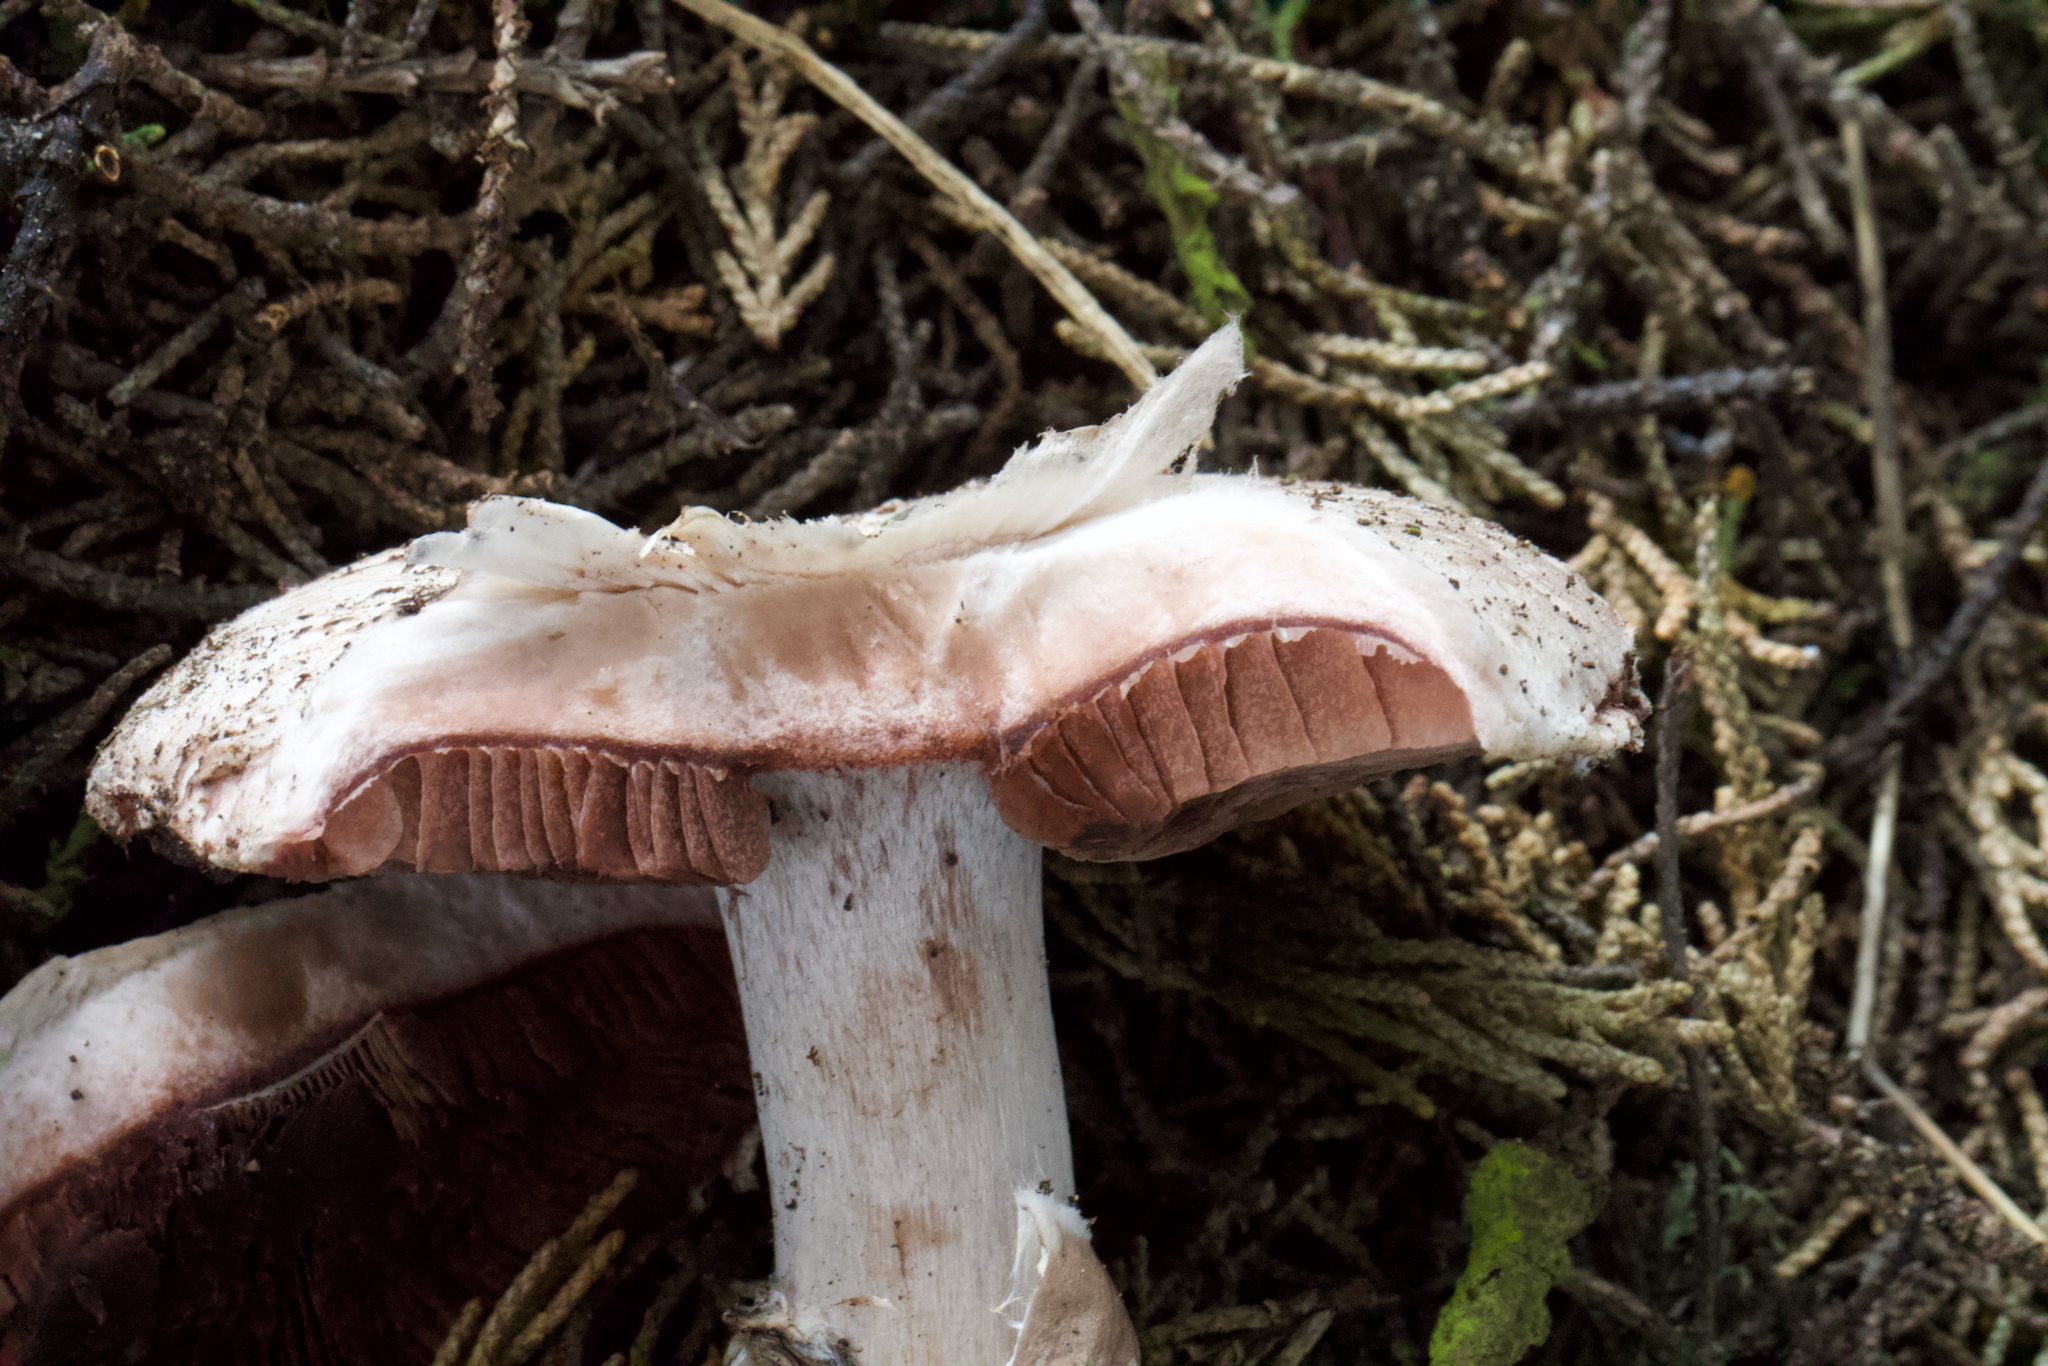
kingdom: Fungi
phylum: Basidiomycota
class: Agaricomycetes
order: Agaricales
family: Agaricaceae
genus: Agaricus
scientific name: Agaricus pattersoniae
